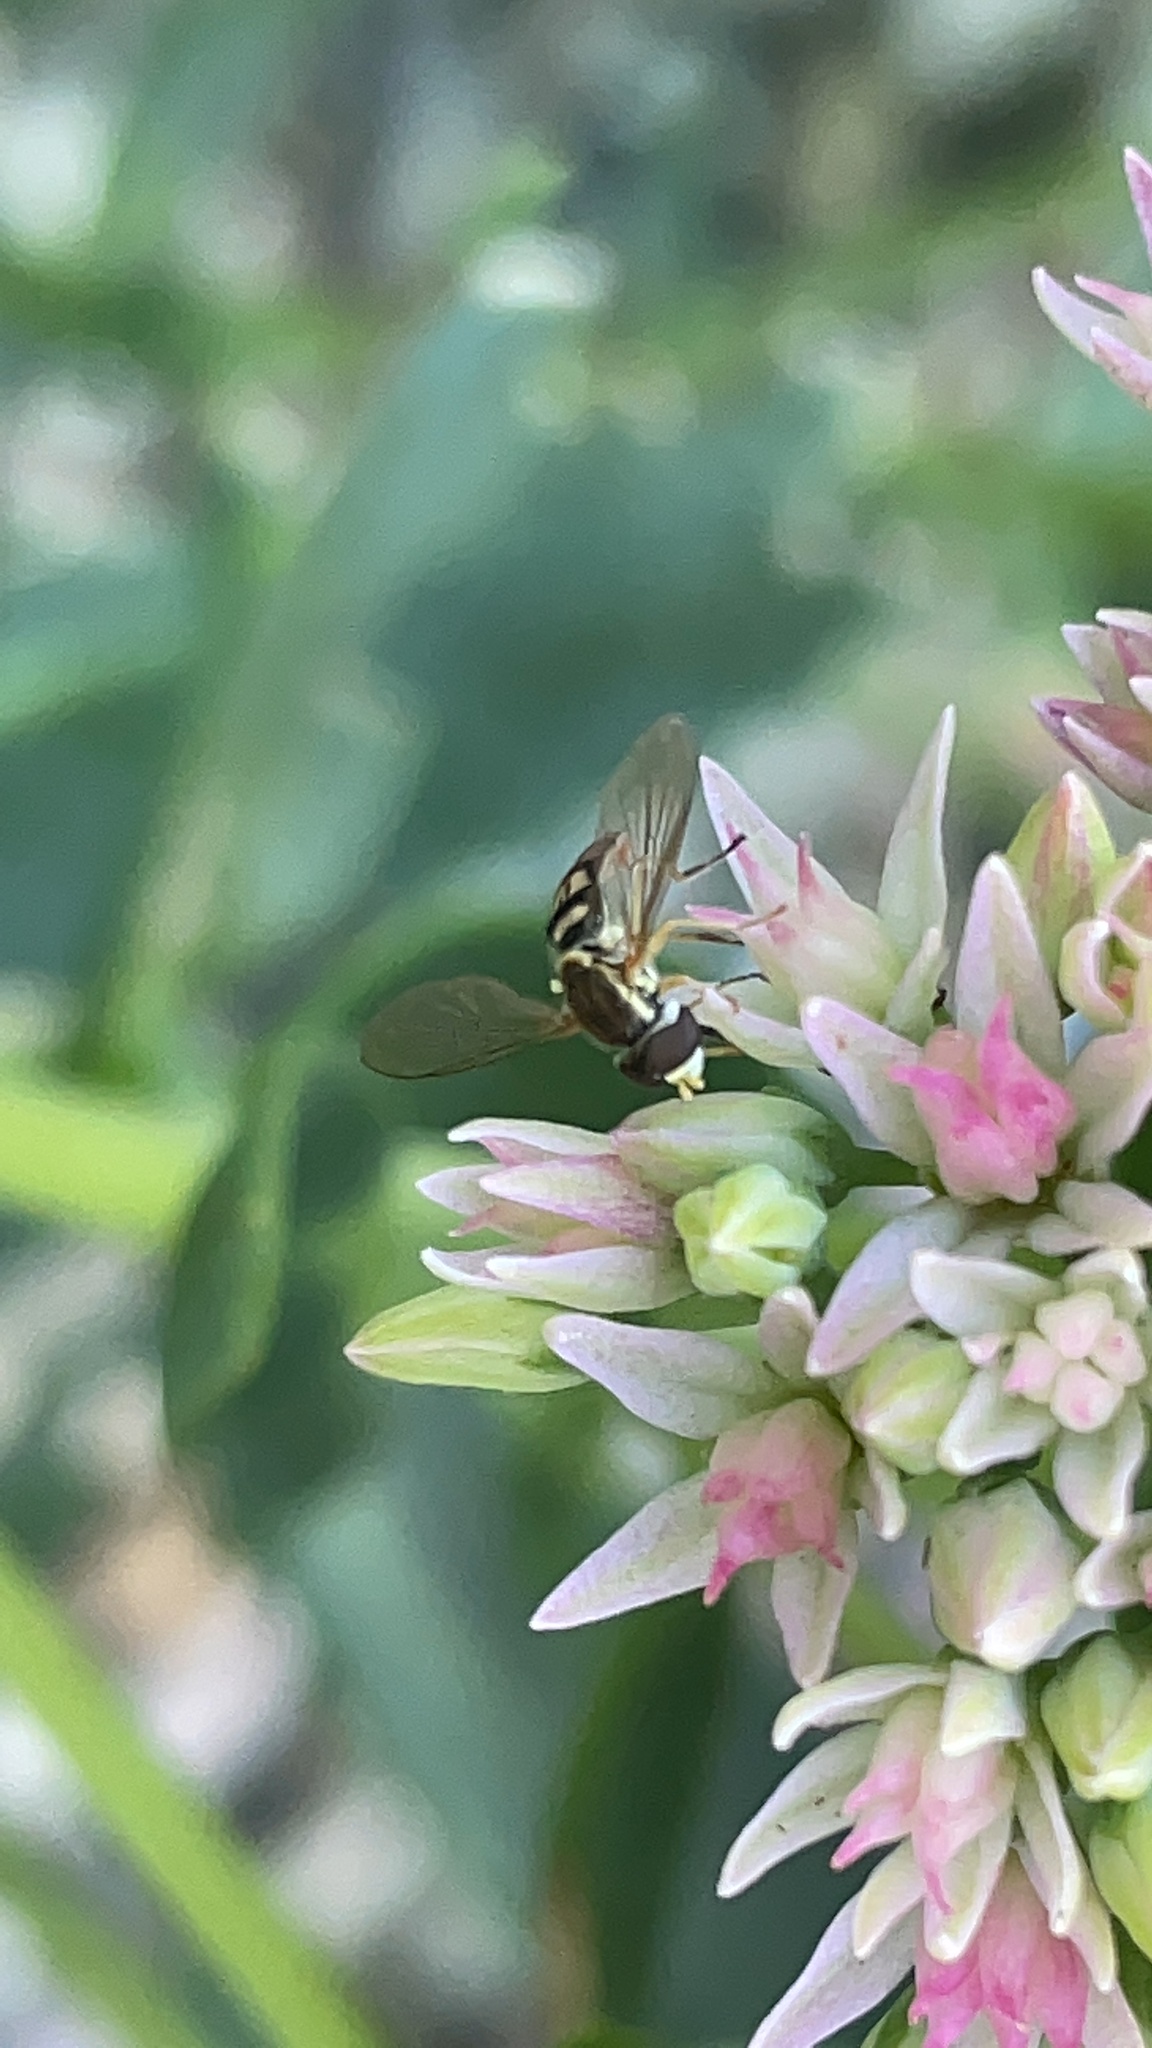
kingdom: Animalia
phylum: Arthropoda
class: Insecta
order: Diptera
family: Syrphidae
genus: Toxomerus
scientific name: Toxomerus marginatus
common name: Syrphid fly
